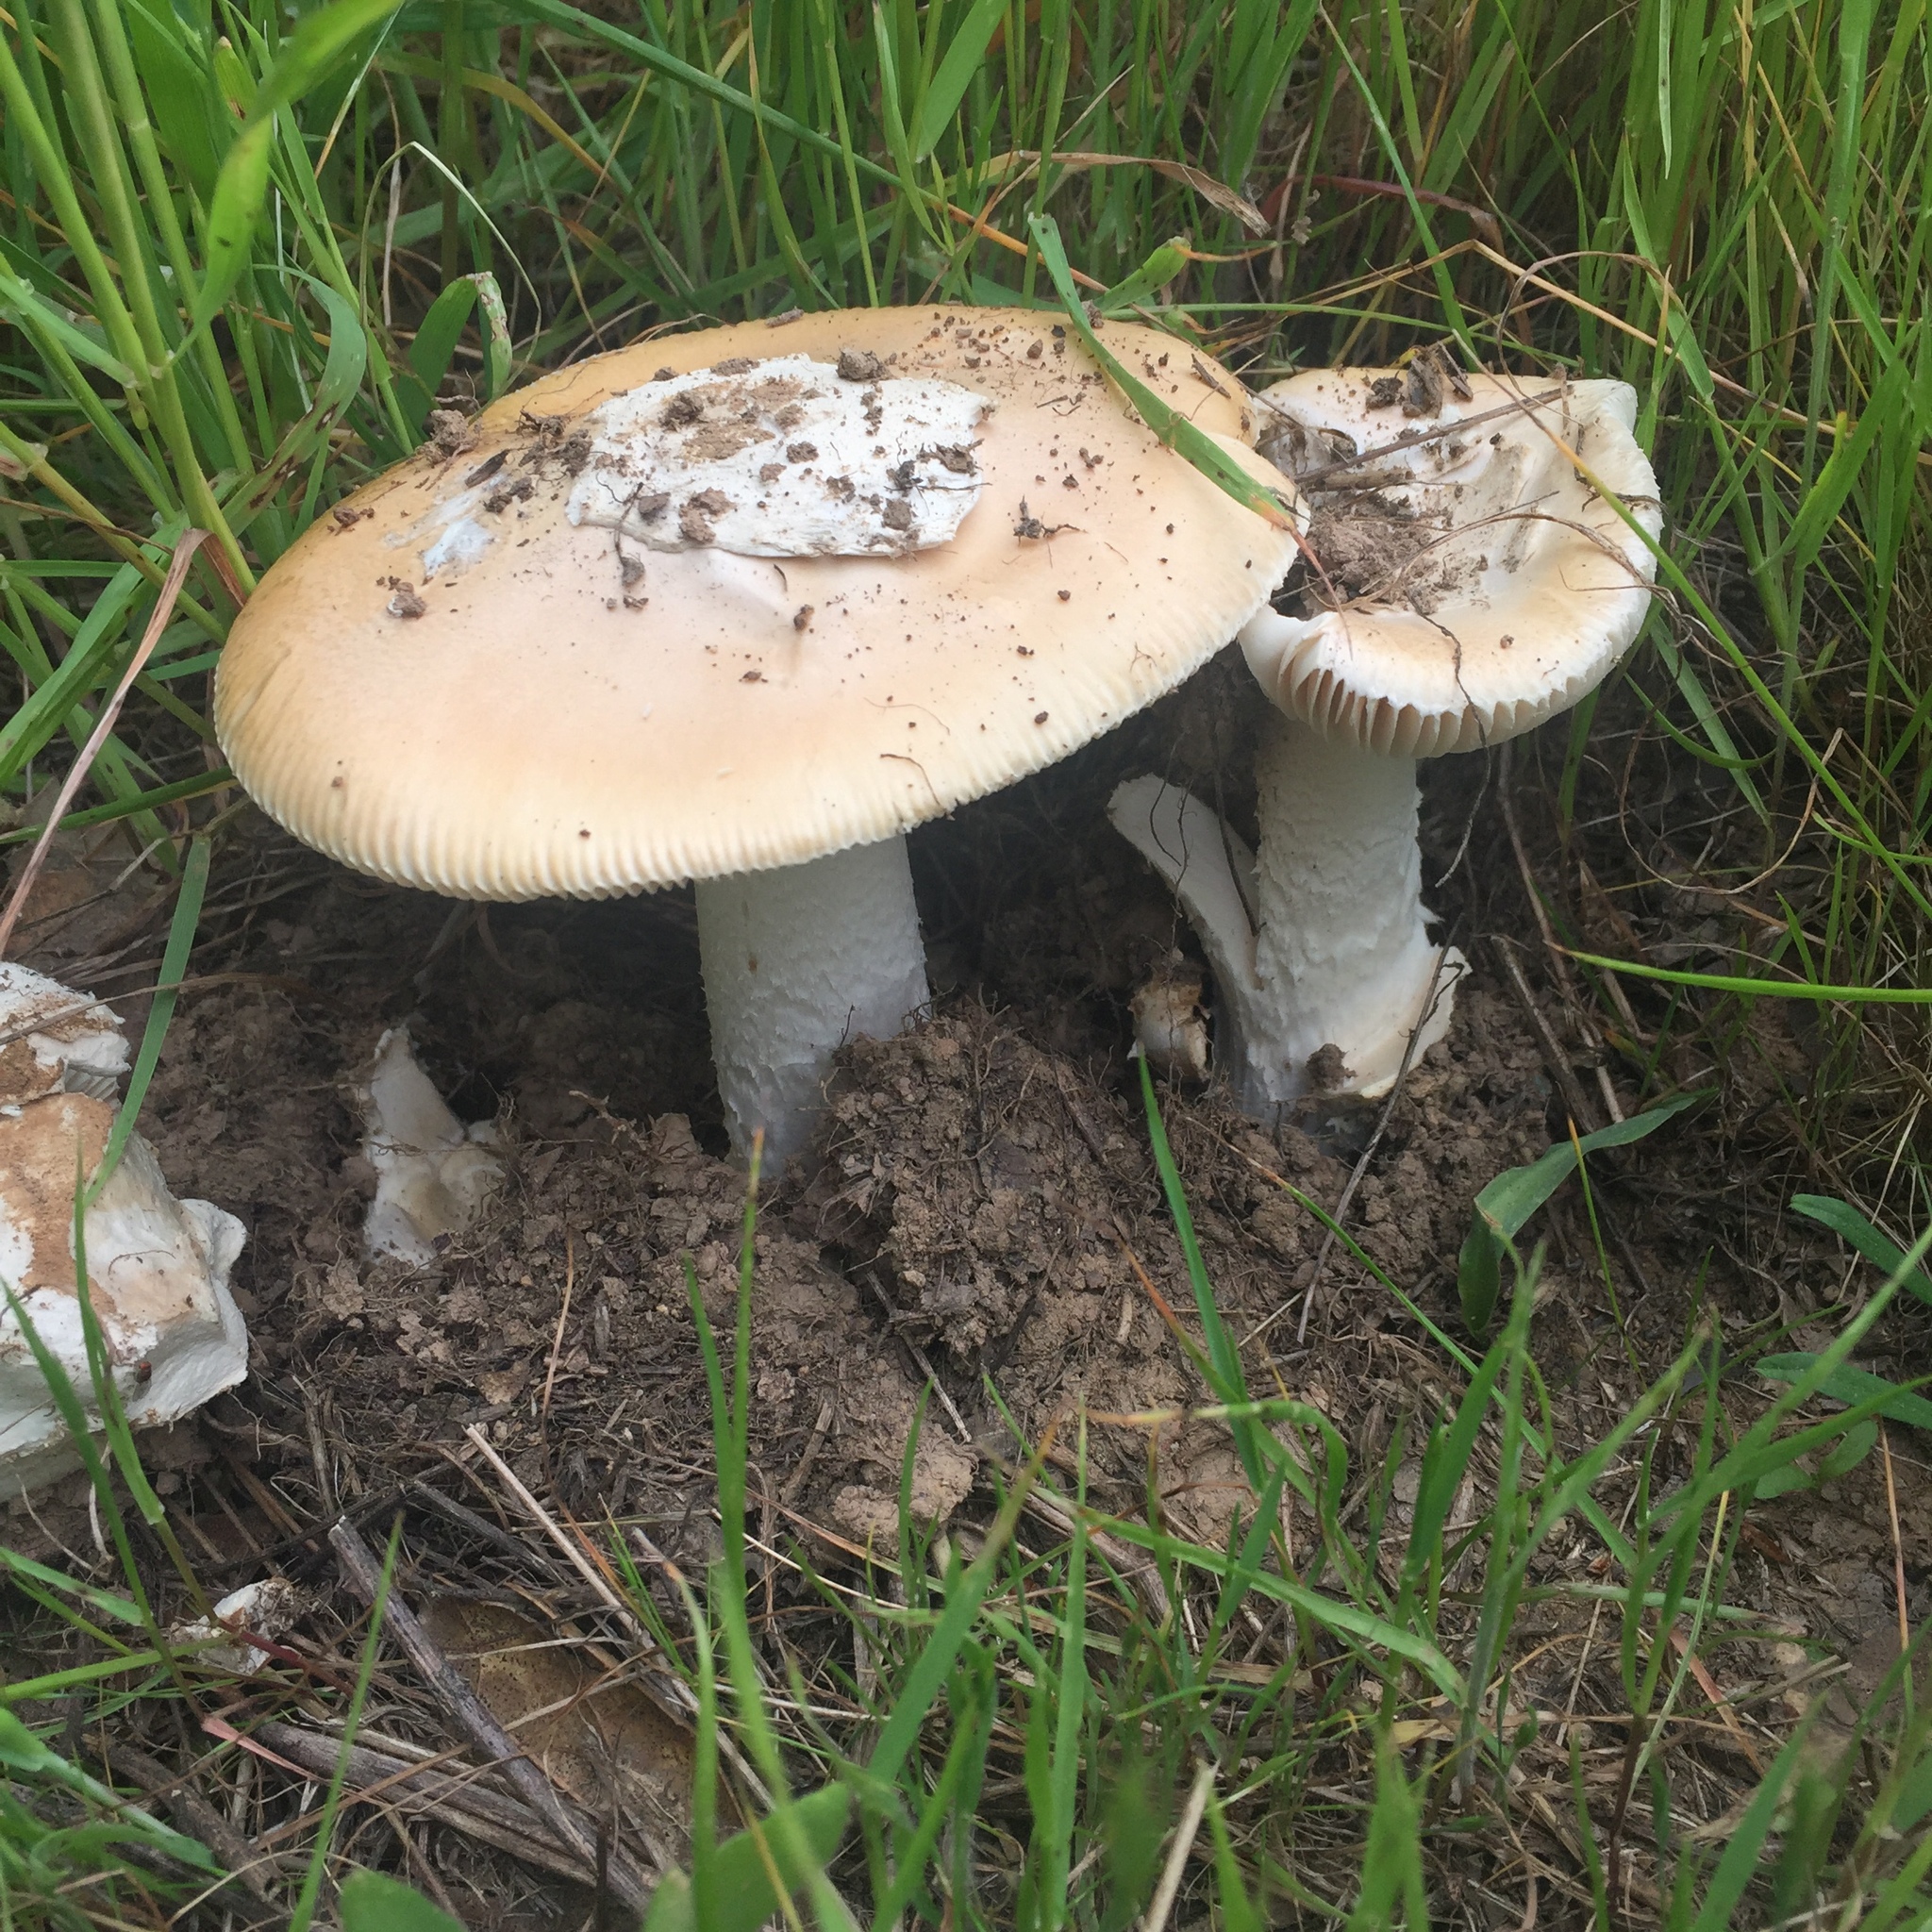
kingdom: Fungi
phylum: Basidiomycota
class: Agaricomycetes
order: Agaricales
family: Amanitaceae
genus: Amanita
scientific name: Amanita velosa
